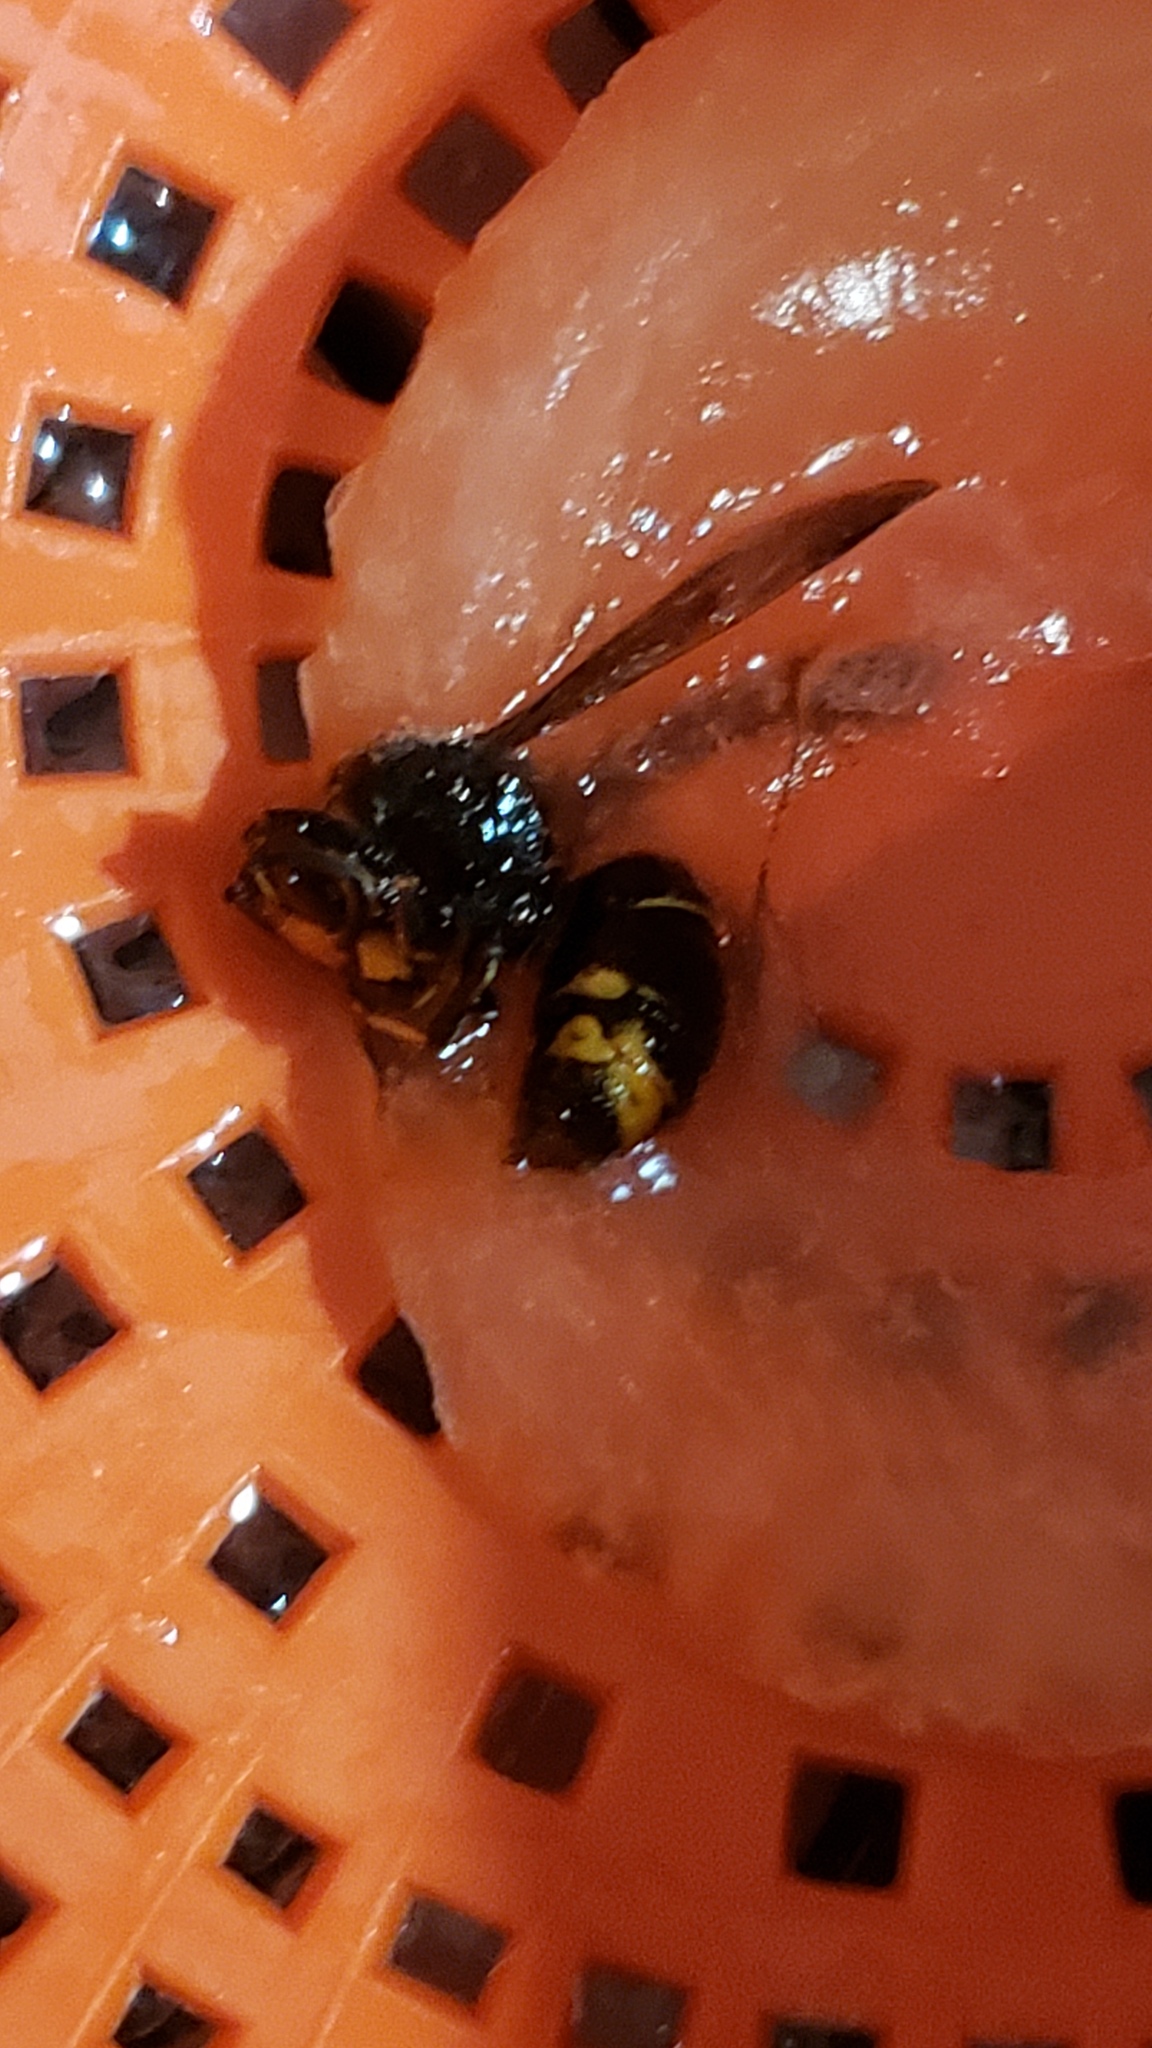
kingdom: Animalia
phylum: Arthropoda
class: Insecta
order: Hymenoptera
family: Vespidae
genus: Vespa
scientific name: Vespa velutina
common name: Asian hornet
